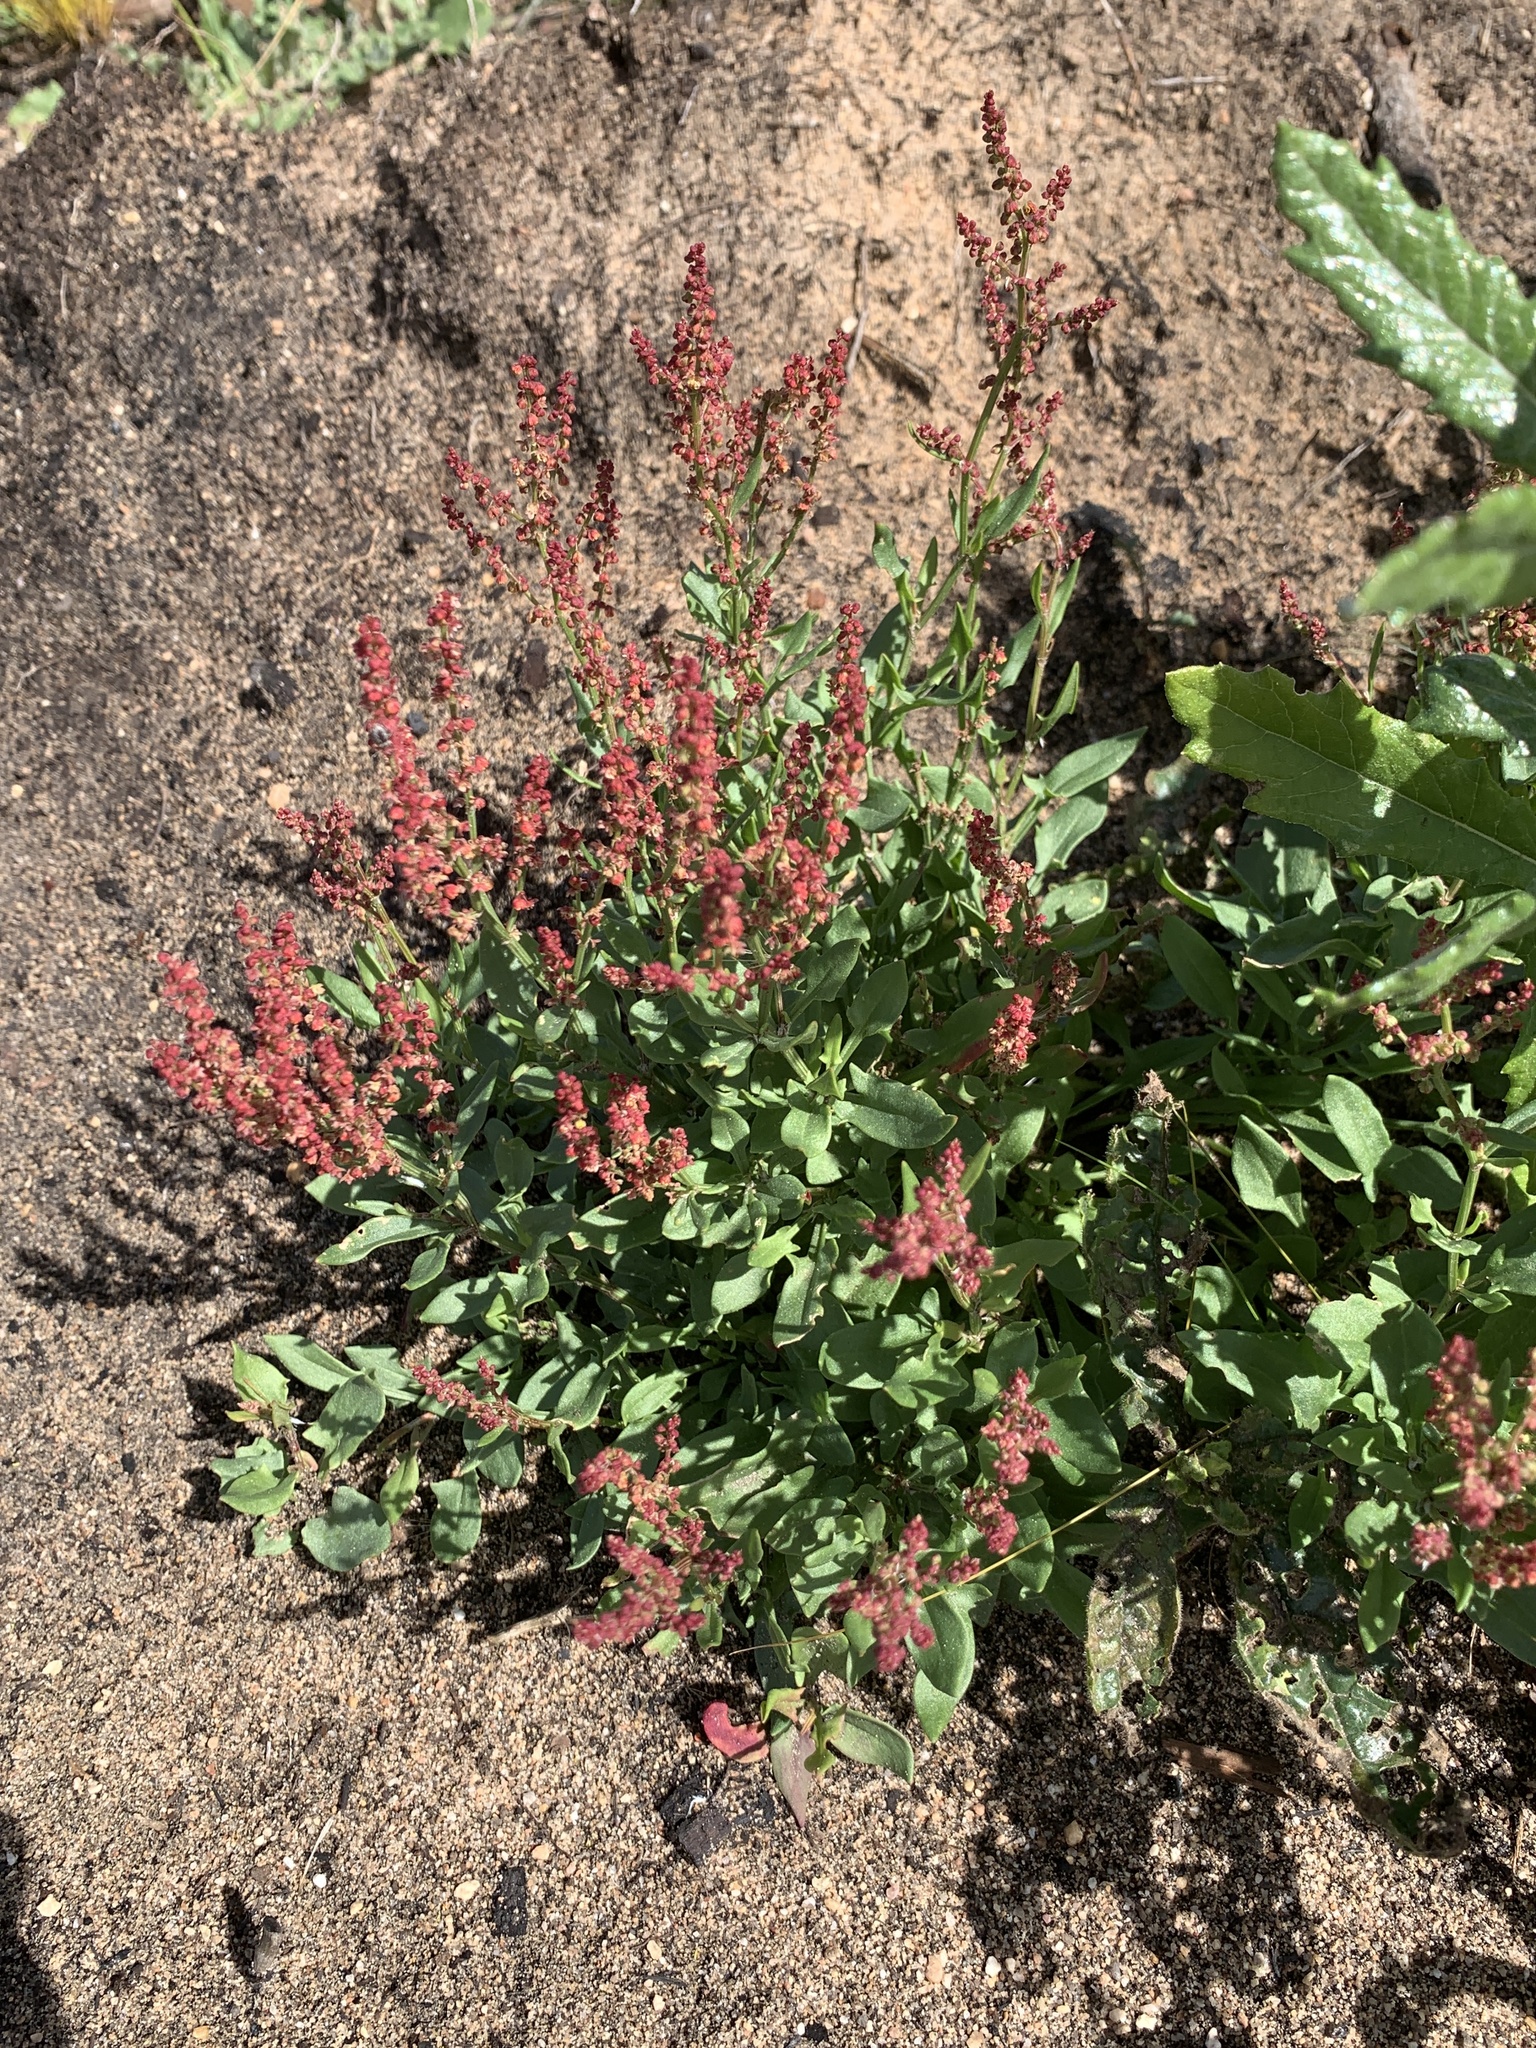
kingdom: Plantae
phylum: Tracheophyta
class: Magnoliopsida
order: Caryophyllales
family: Polygonaceae
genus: Rumex
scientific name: Rumex acetosella
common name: Common sheep sorrel
